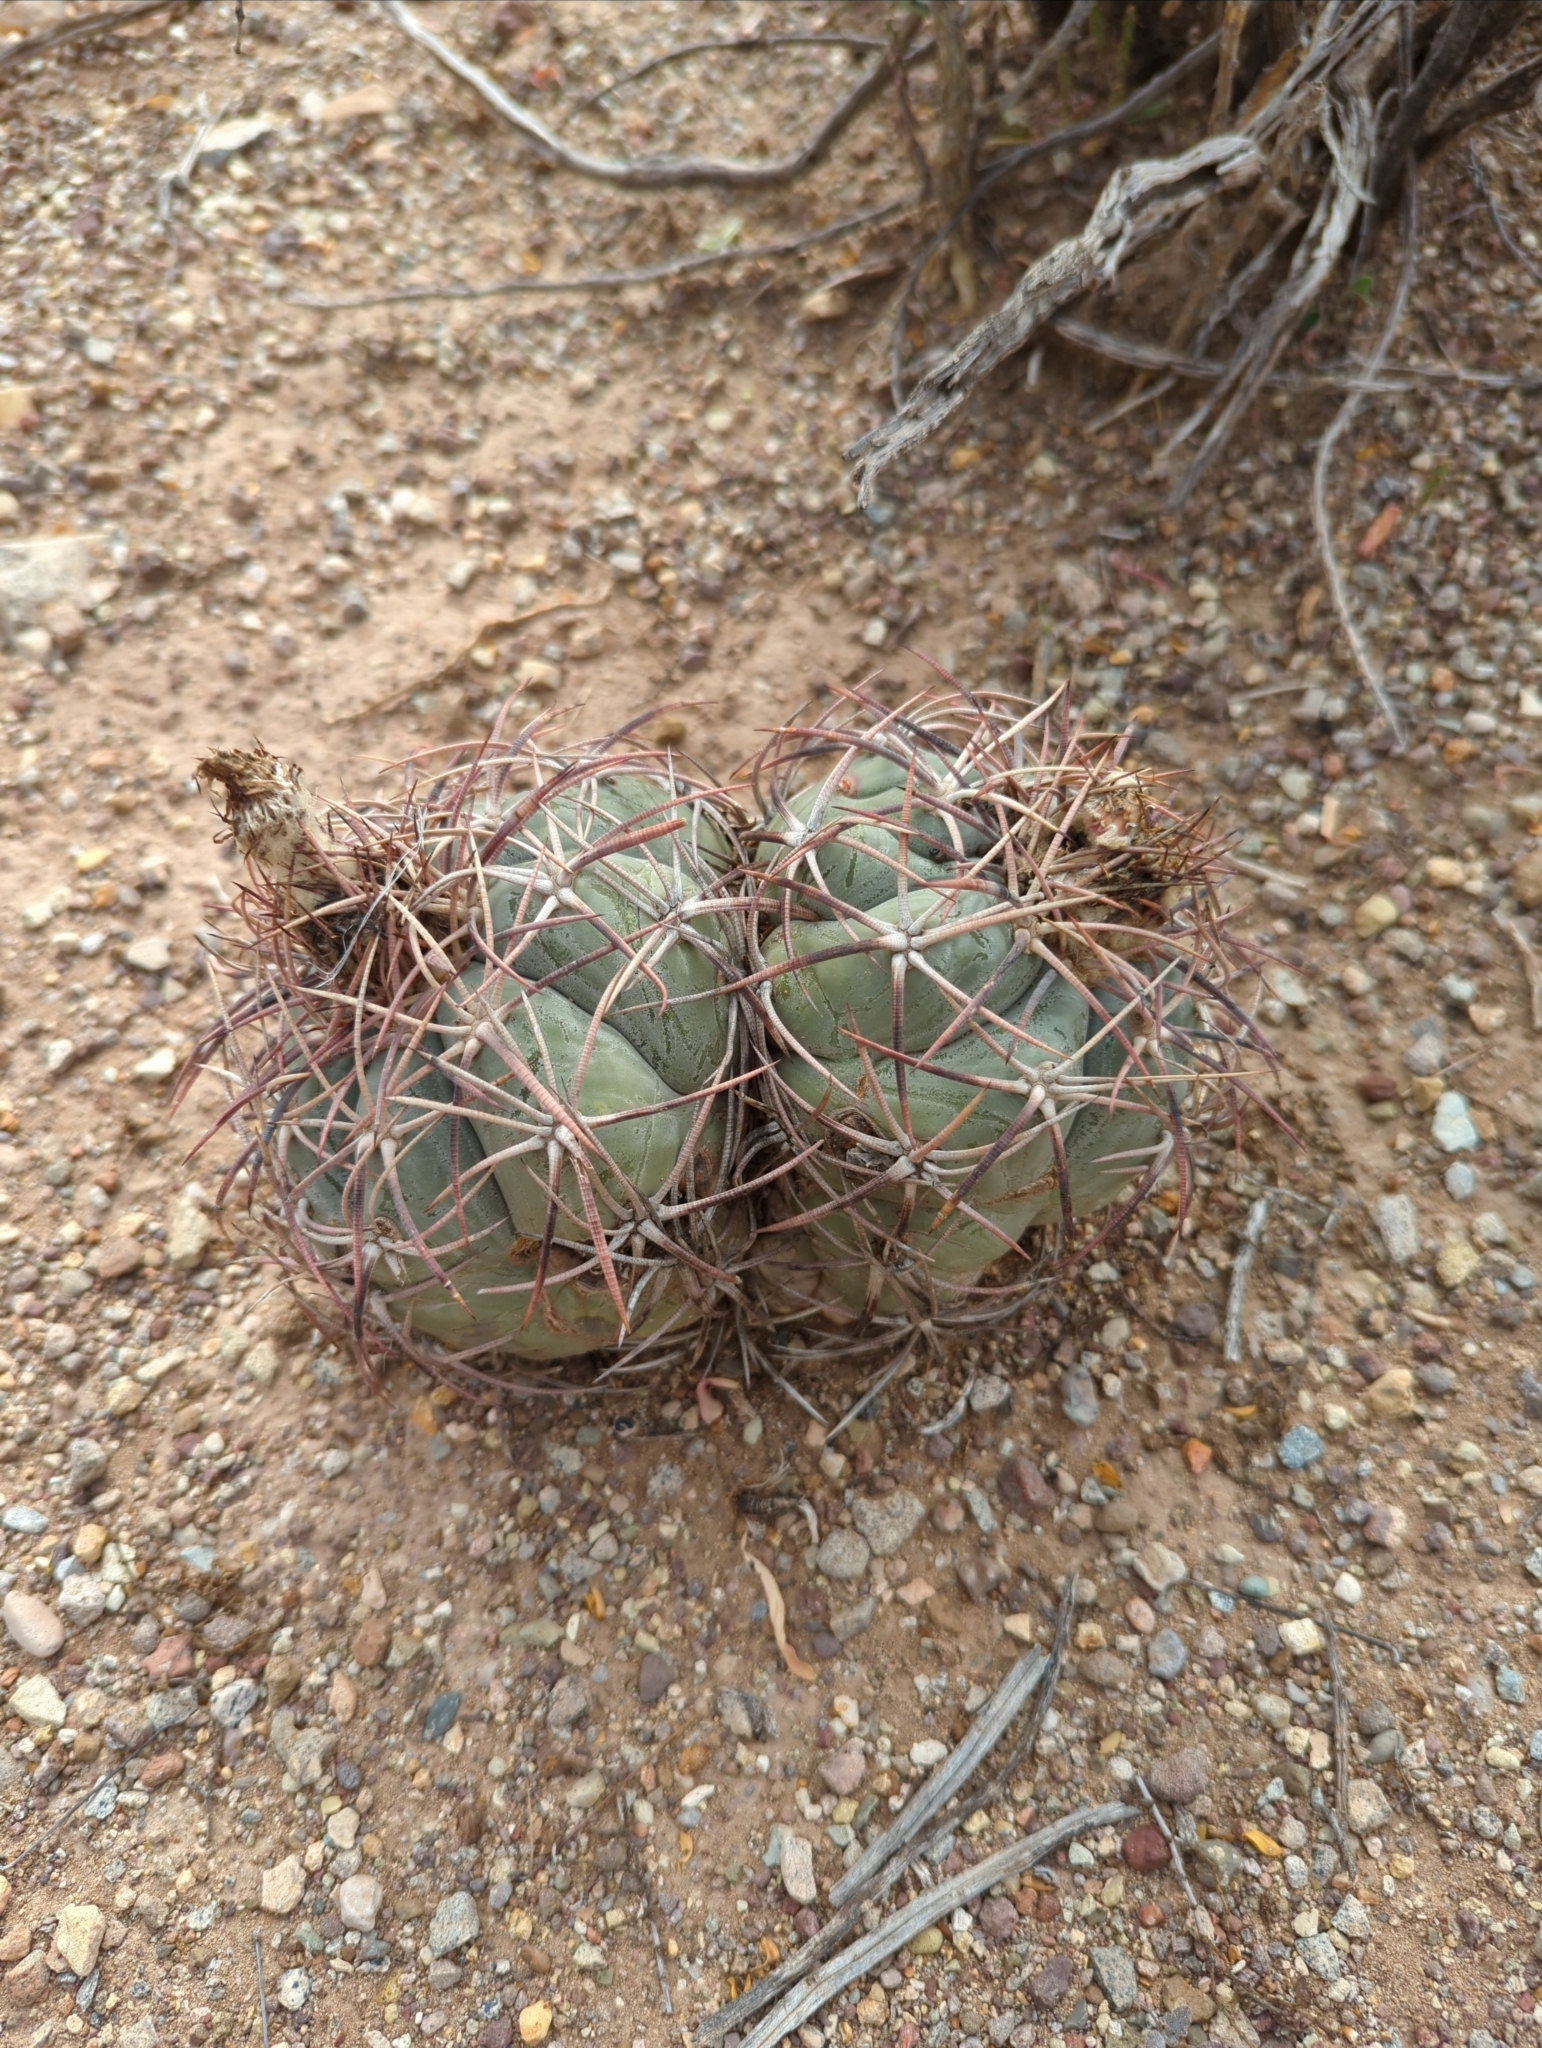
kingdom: Plantae
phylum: Tracheophyta
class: Magnoliopsida
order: Caryophyllales
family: Cactaceae
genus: Echinocactus
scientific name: Echinocactus horizonthalonius
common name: Devilshead
